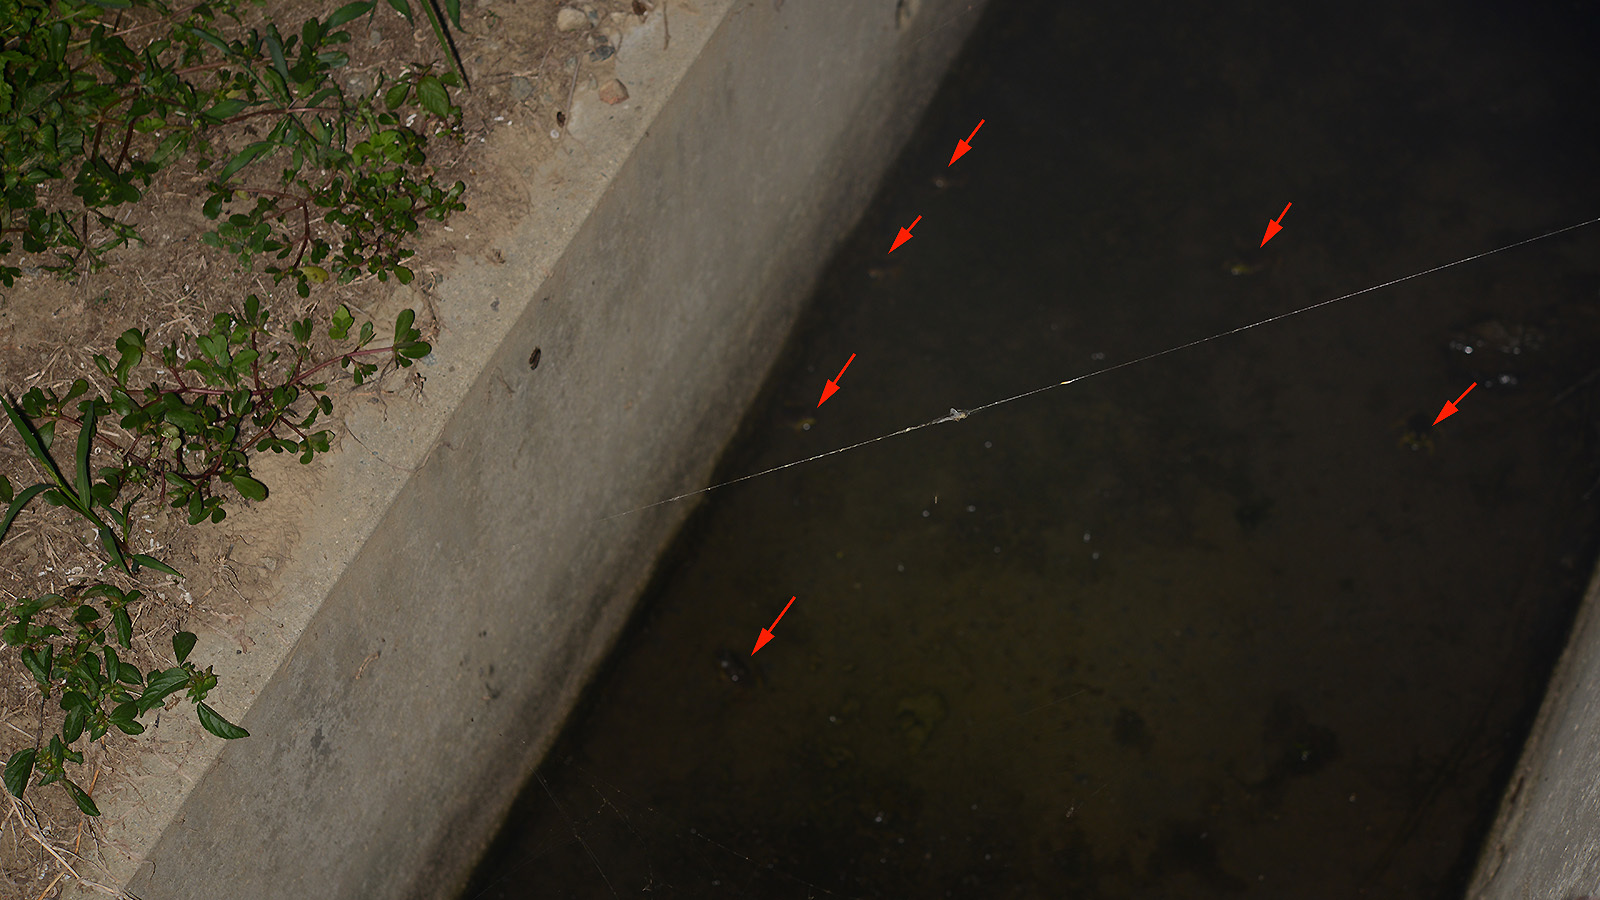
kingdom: Animalia
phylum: Chordata
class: Amphibia
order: Anura
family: Ranidae
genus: Lithobates
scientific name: Lithobates catesbeianus
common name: American bullfrog
